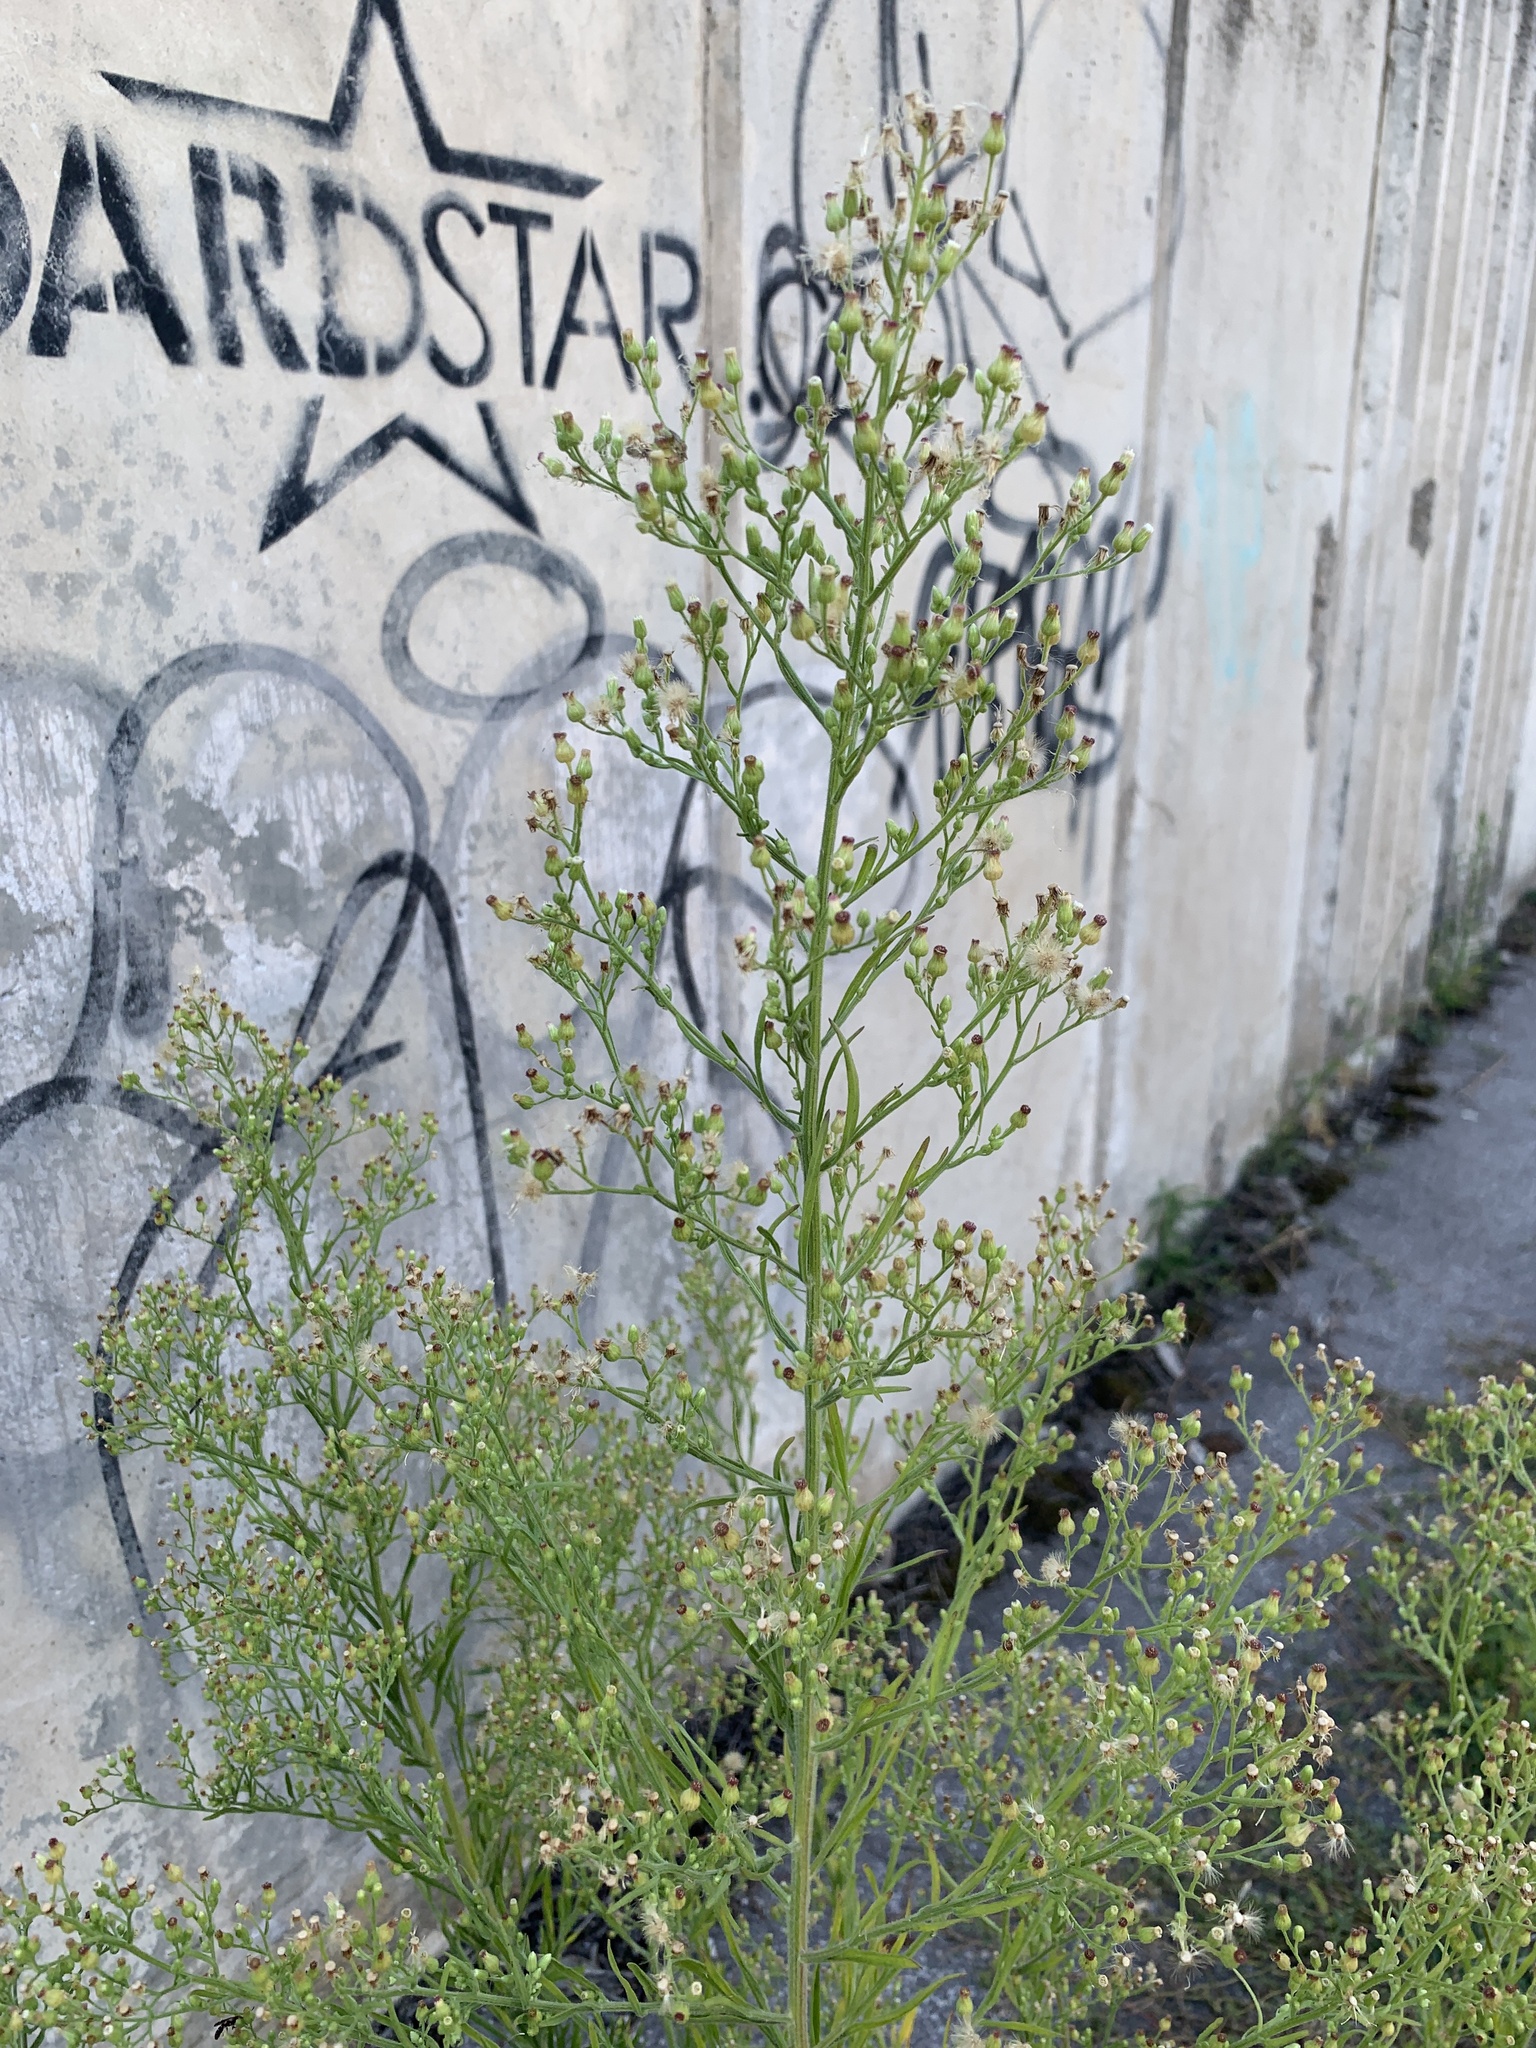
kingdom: Plantae
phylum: Tracheophyta
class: Magnoliopsida
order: Asterales
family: Asteraceae
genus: Erigeron
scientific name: Erigeron canadensis
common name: Canadian fleabane
